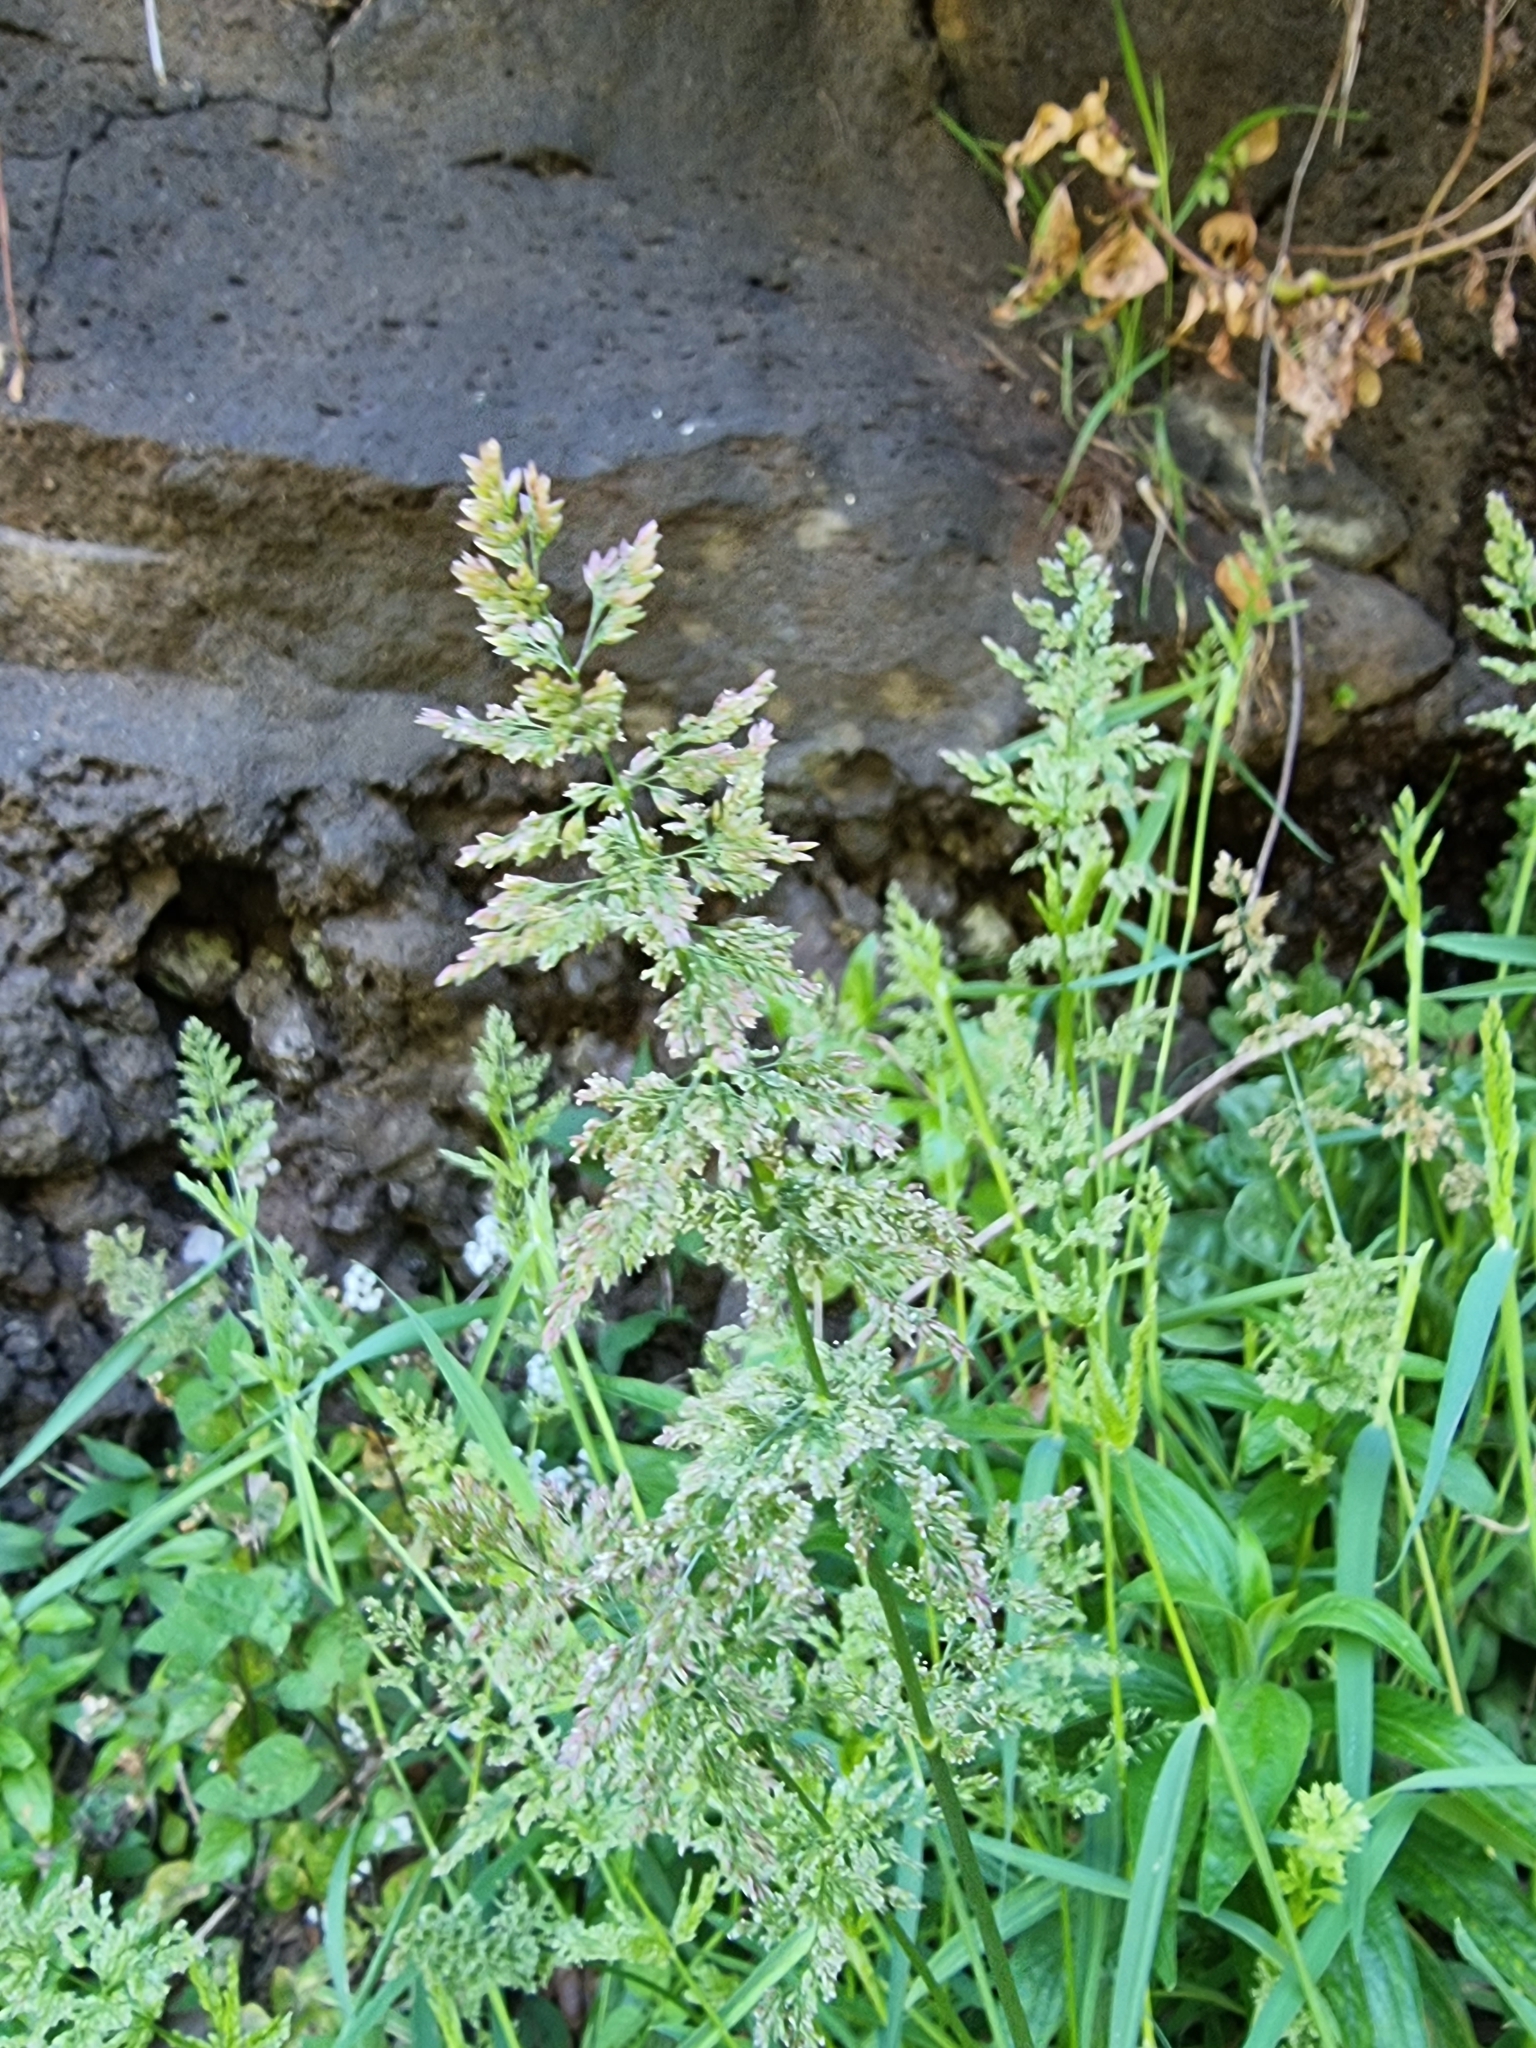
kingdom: Plantae
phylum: Tracheophyta
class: Liliopsida
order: Poales
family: Poaceae
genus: Polypogon
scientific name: Polypogon viridis
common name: Water bent
